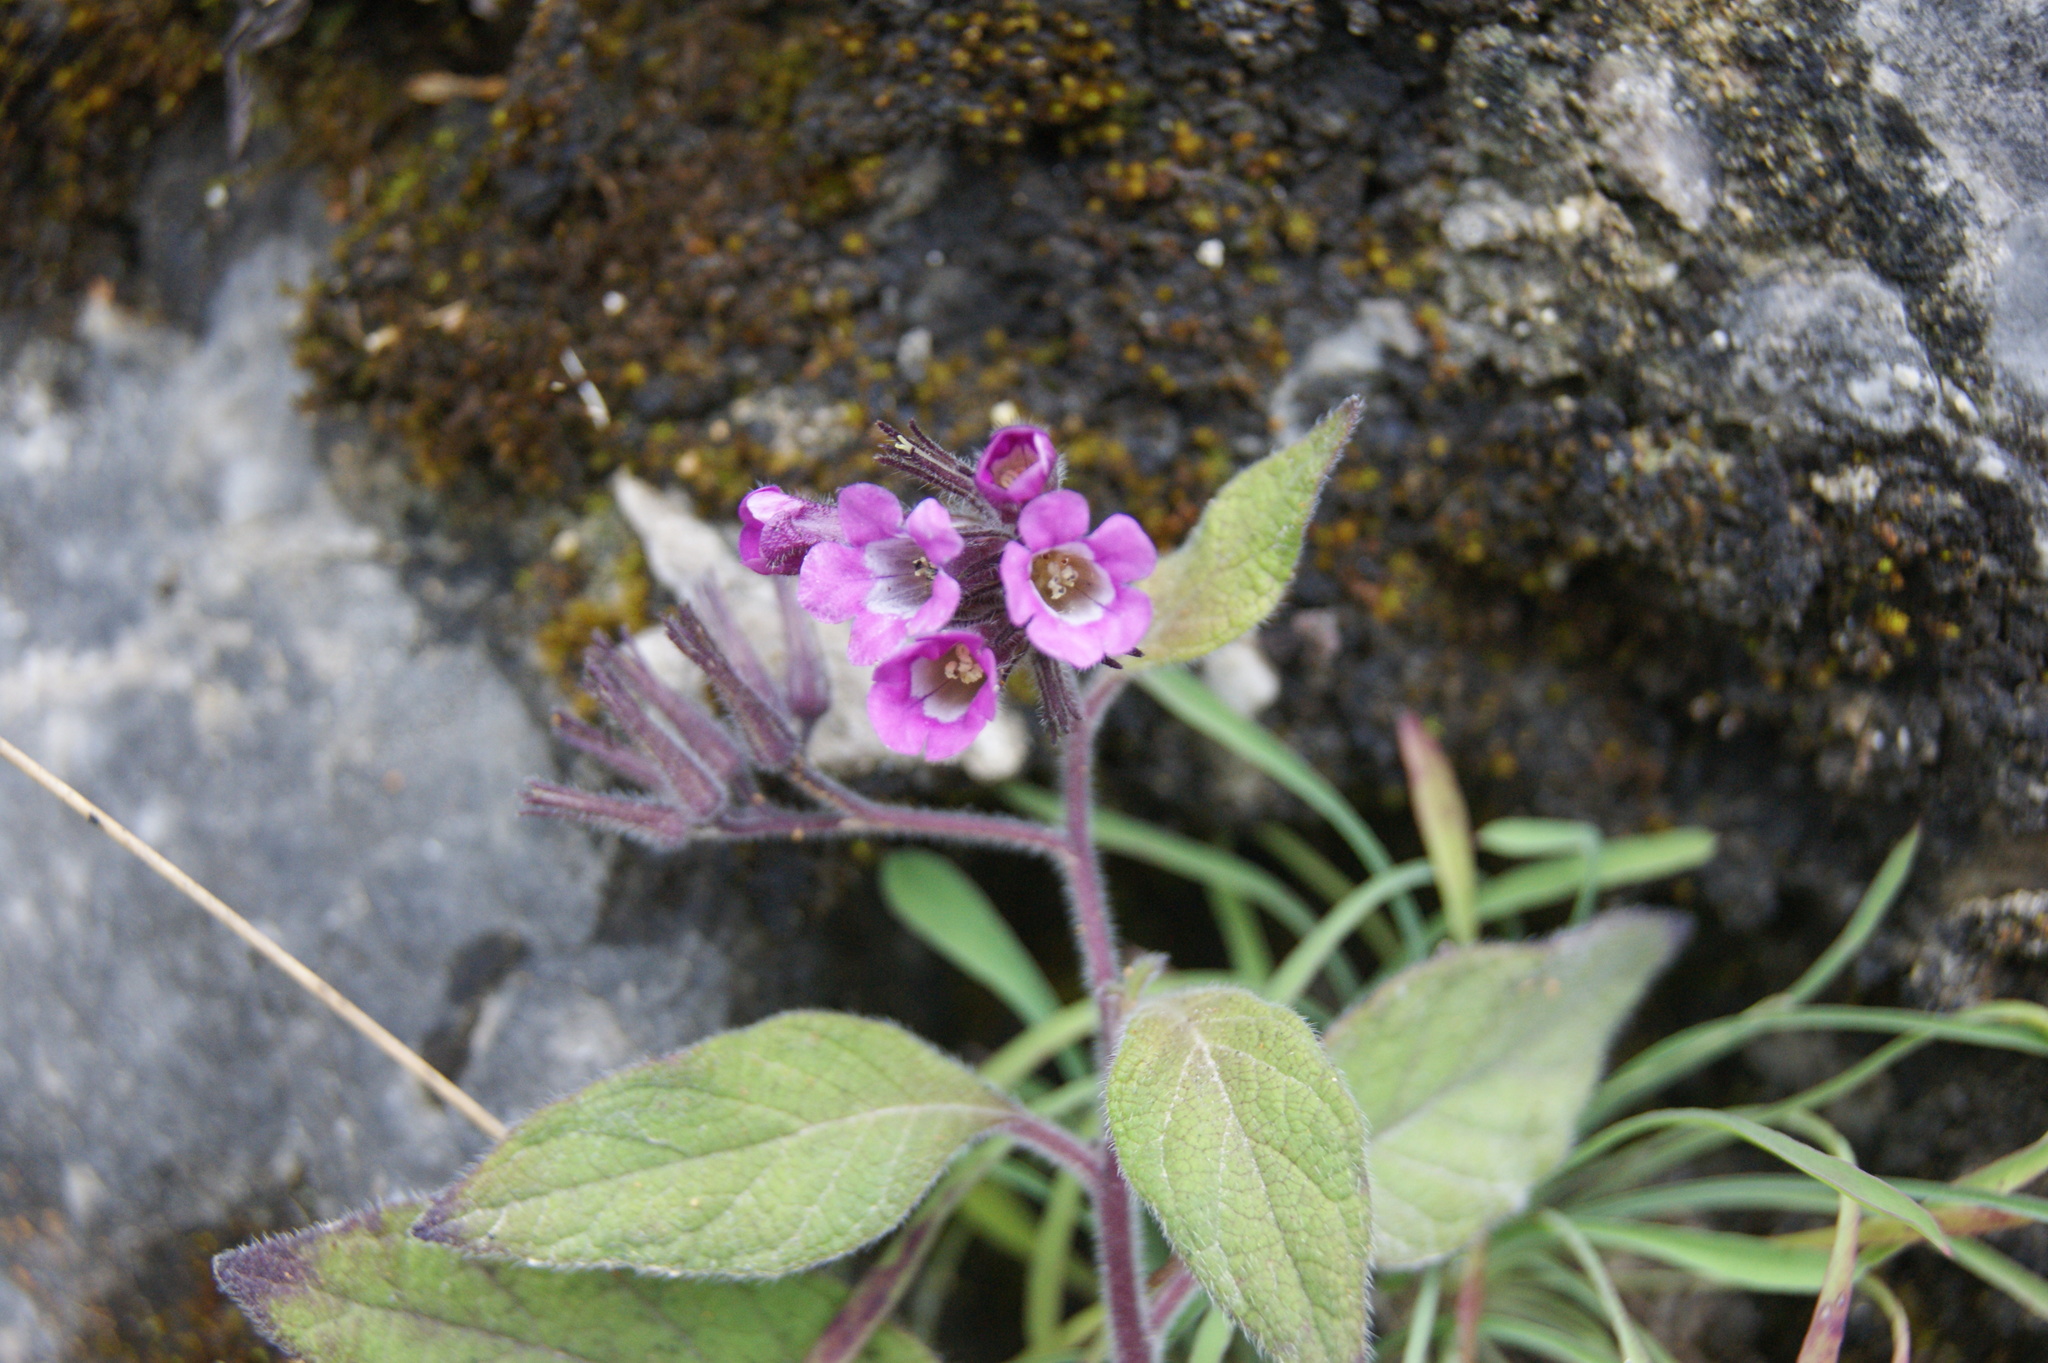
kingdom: Plantae
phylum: Tracheophyta
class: Magnoliopsida
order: Boraginales
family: Namaceae
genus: Nama
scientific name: Nama linearis
